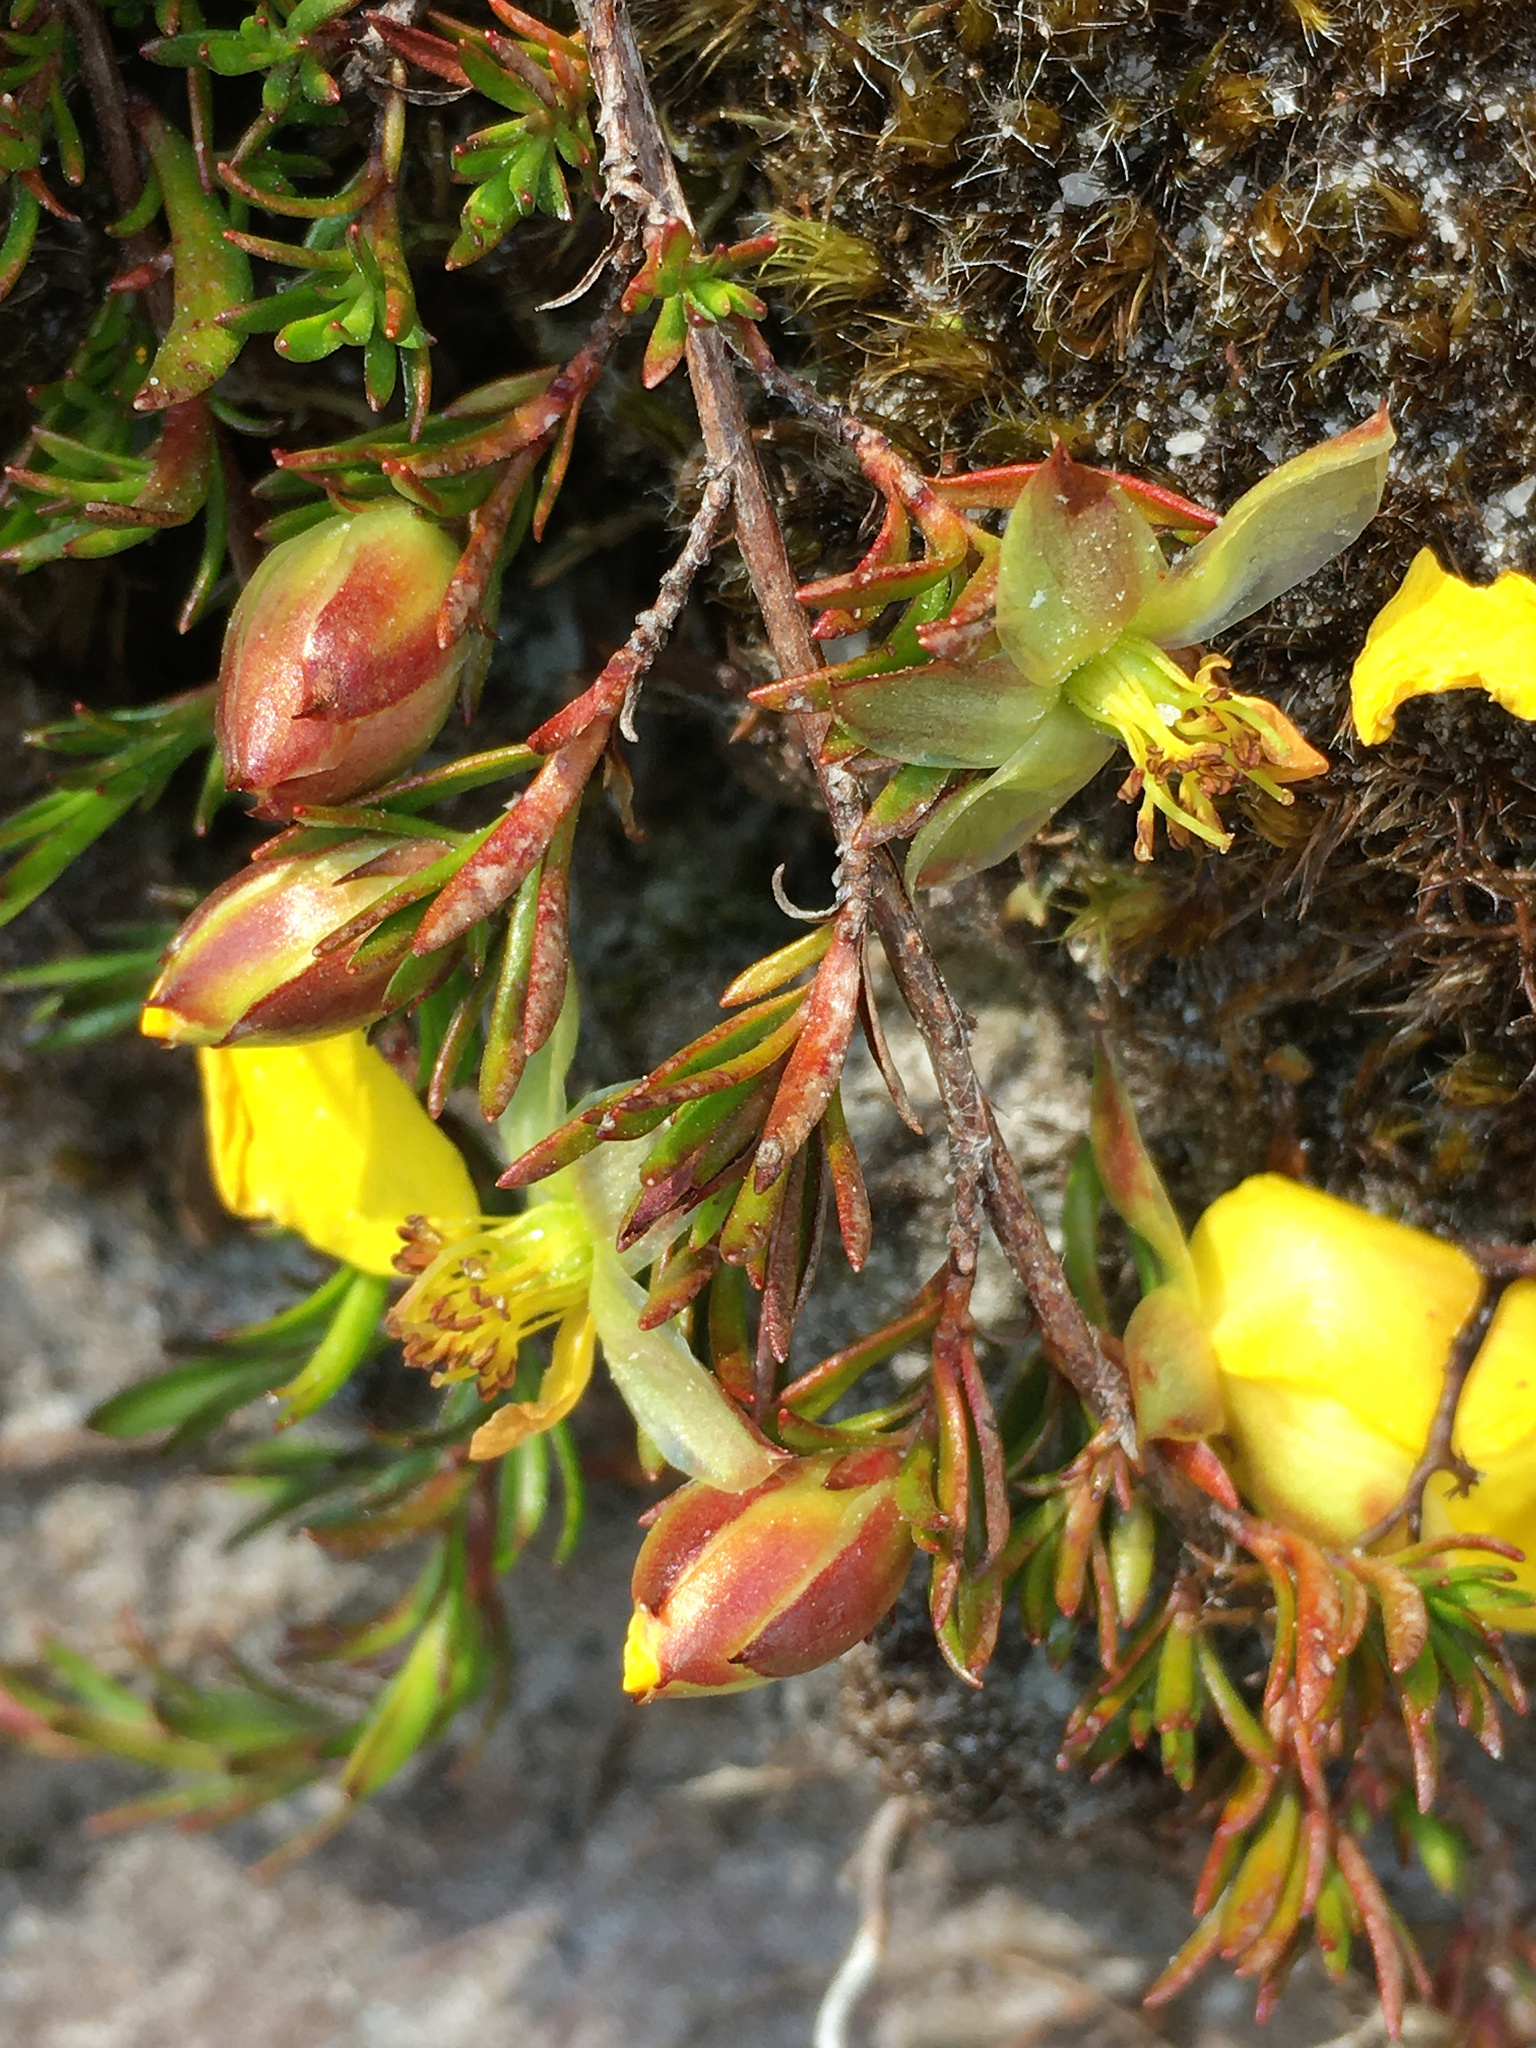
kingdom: Plantae
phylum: Tracheophyta
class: Magnoliopsida
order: Dilleniales
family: Dilleniaceae
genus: Hibbertia
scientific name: Hibbertia procumbens
